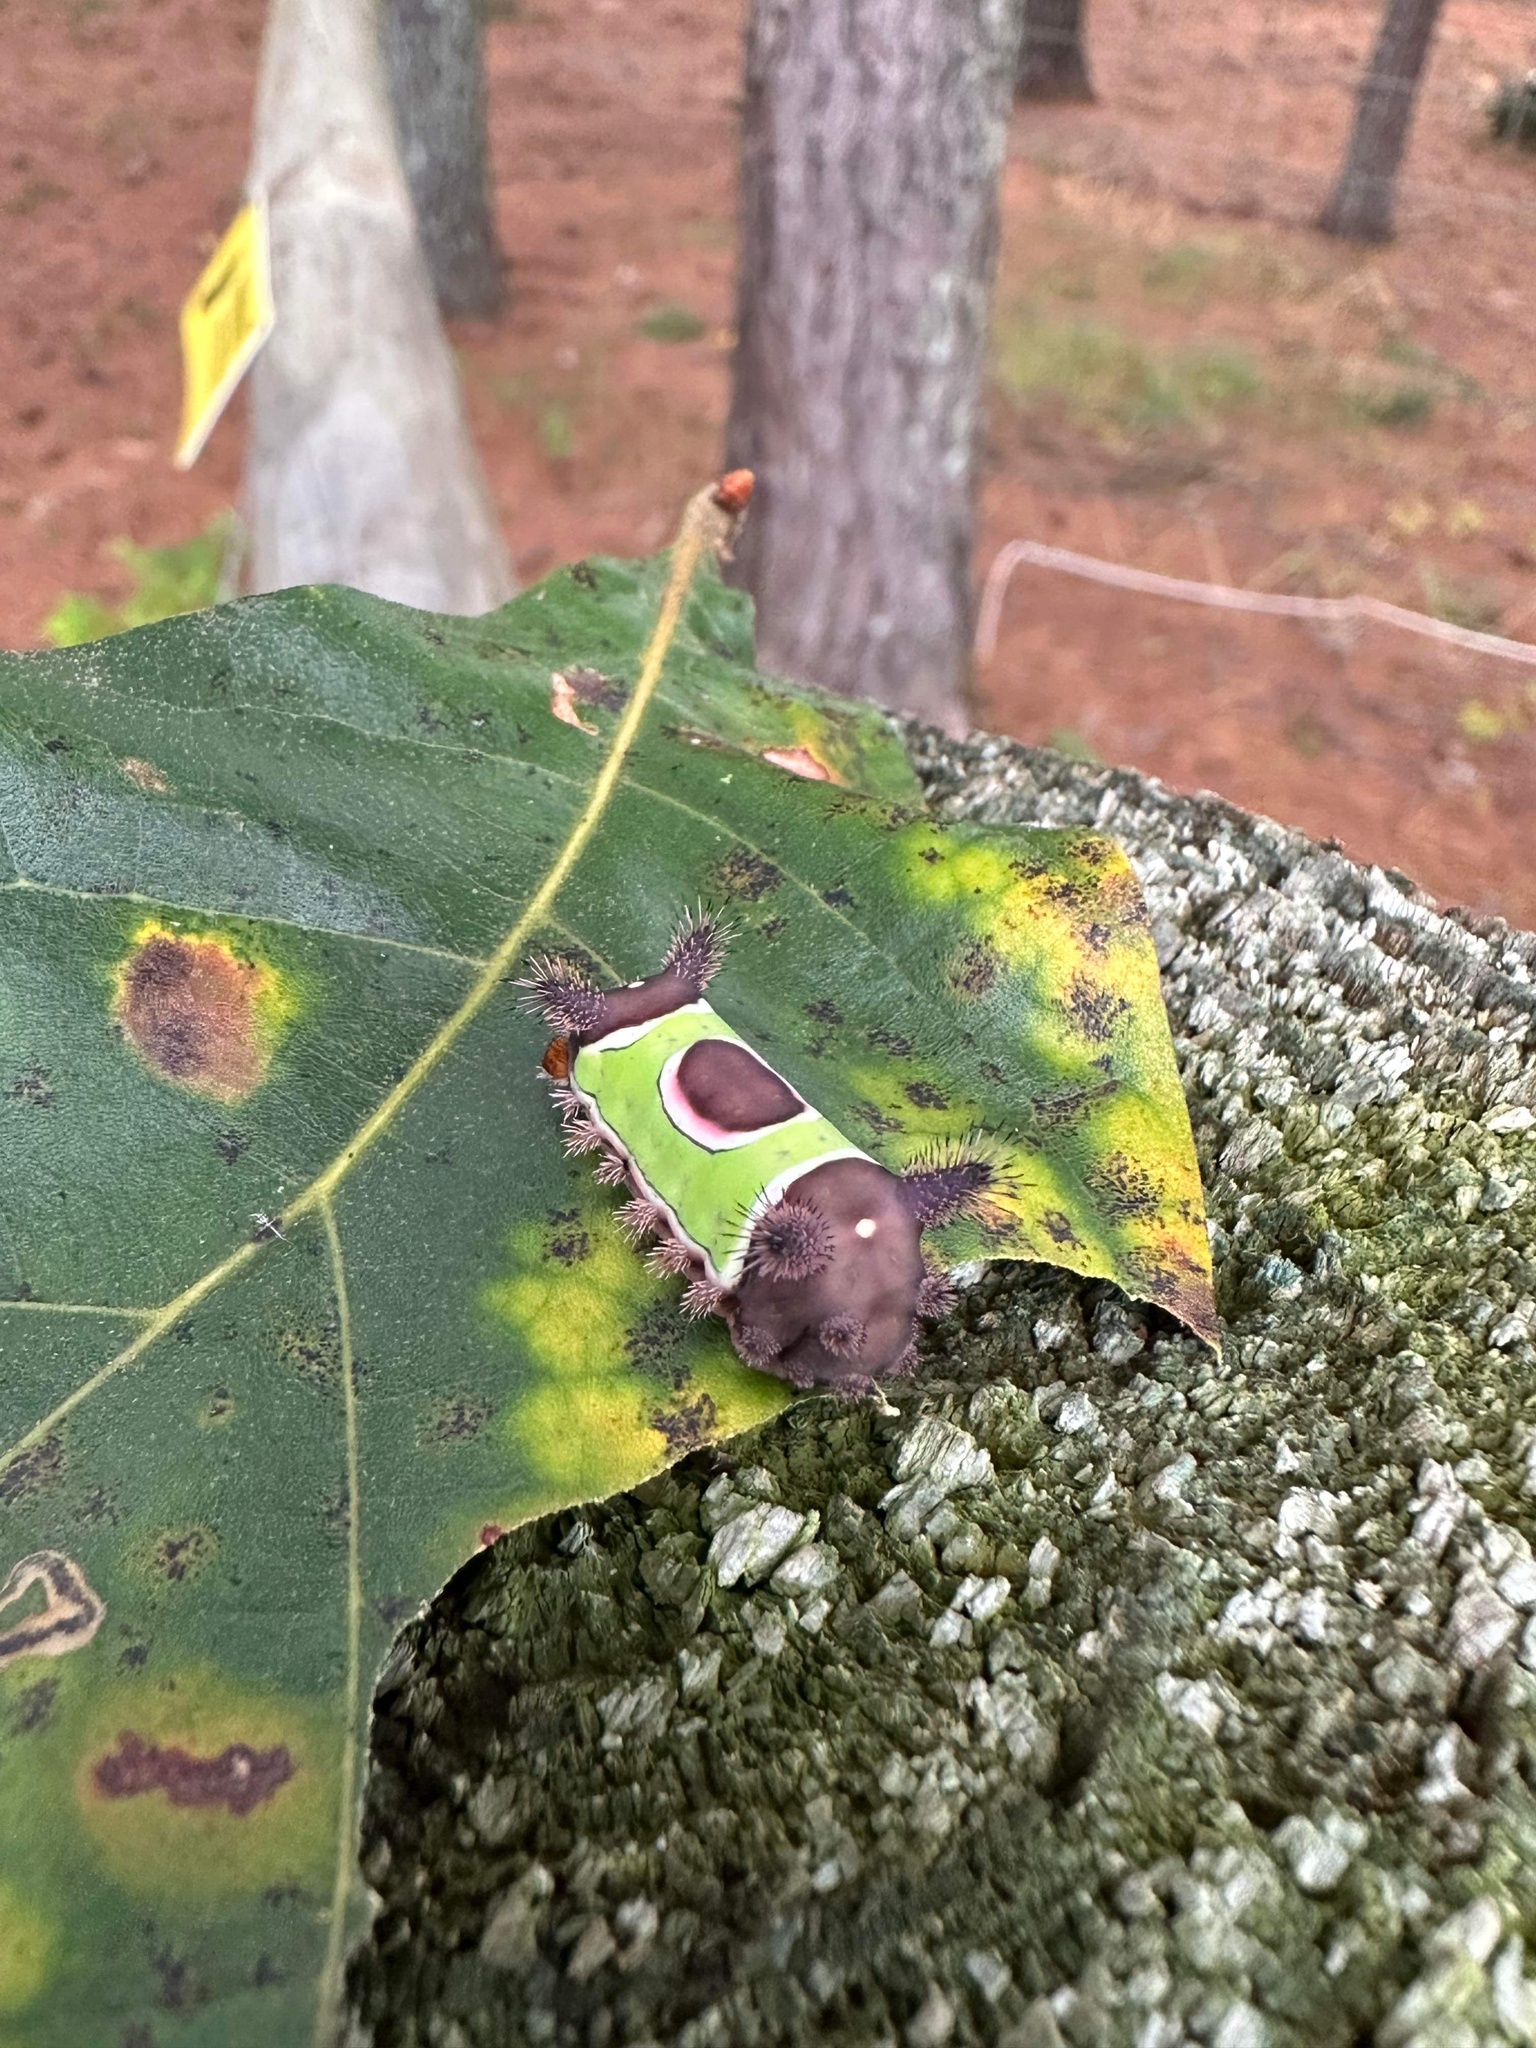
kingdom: Animalia
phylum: Arthropoda
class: Insecta
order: Lepidoptera
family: Limacodidae
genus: Acharia
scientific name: Acharia stimulea
